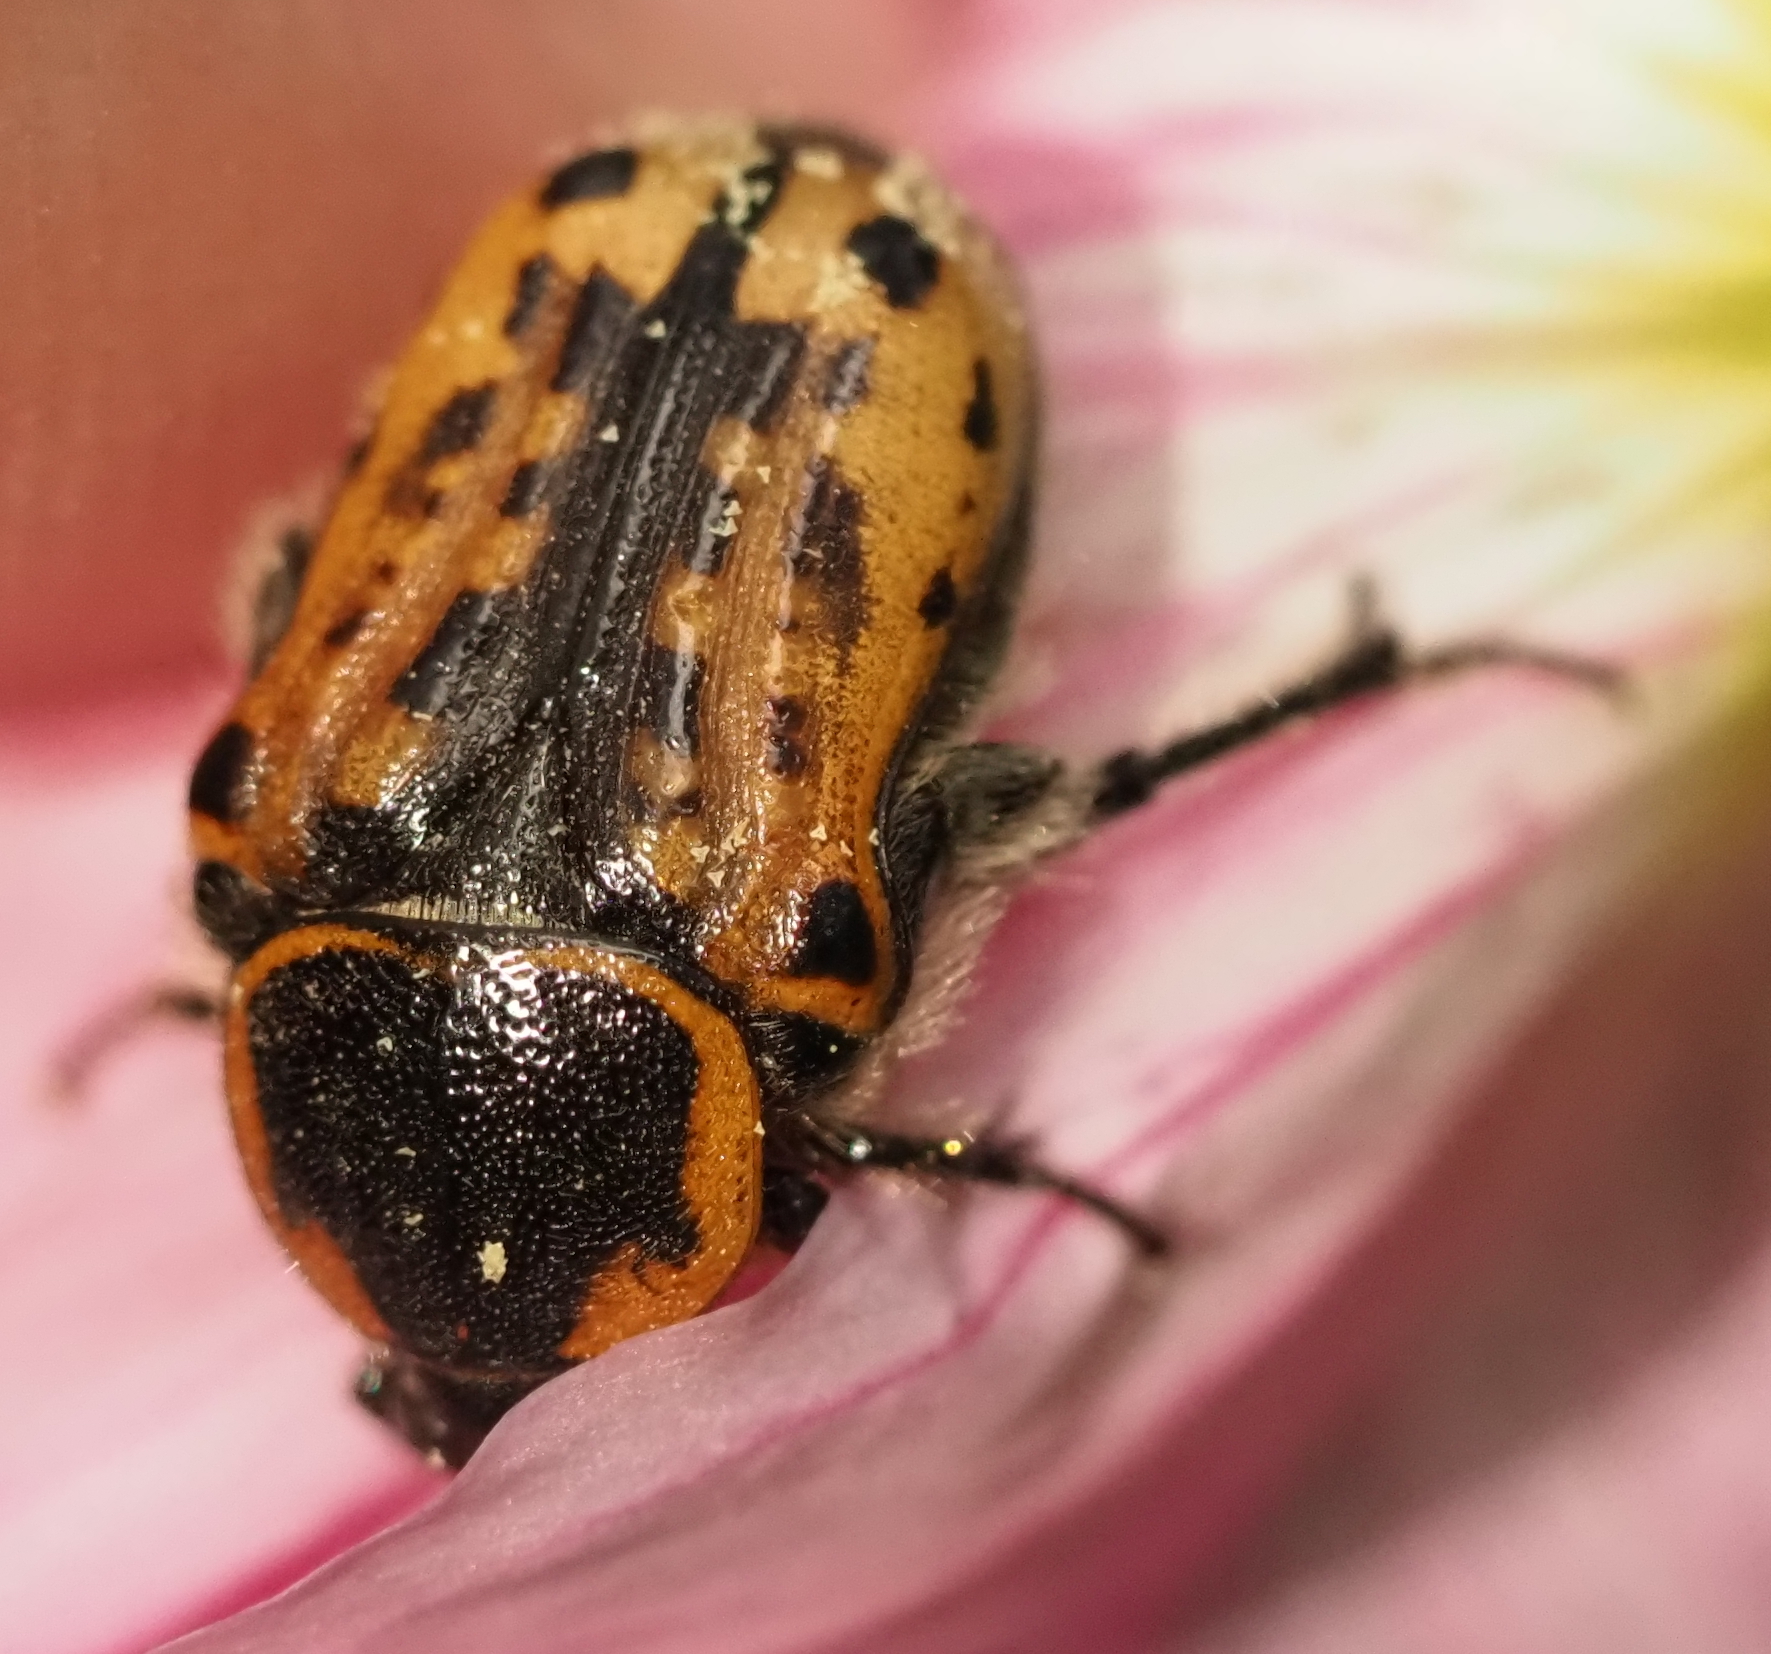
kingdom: Animalia
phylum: Arthropoda
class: Insecta
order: Coleoptera
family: Scarabaeidae
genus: Euphoria
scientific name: Euphoria kernii
